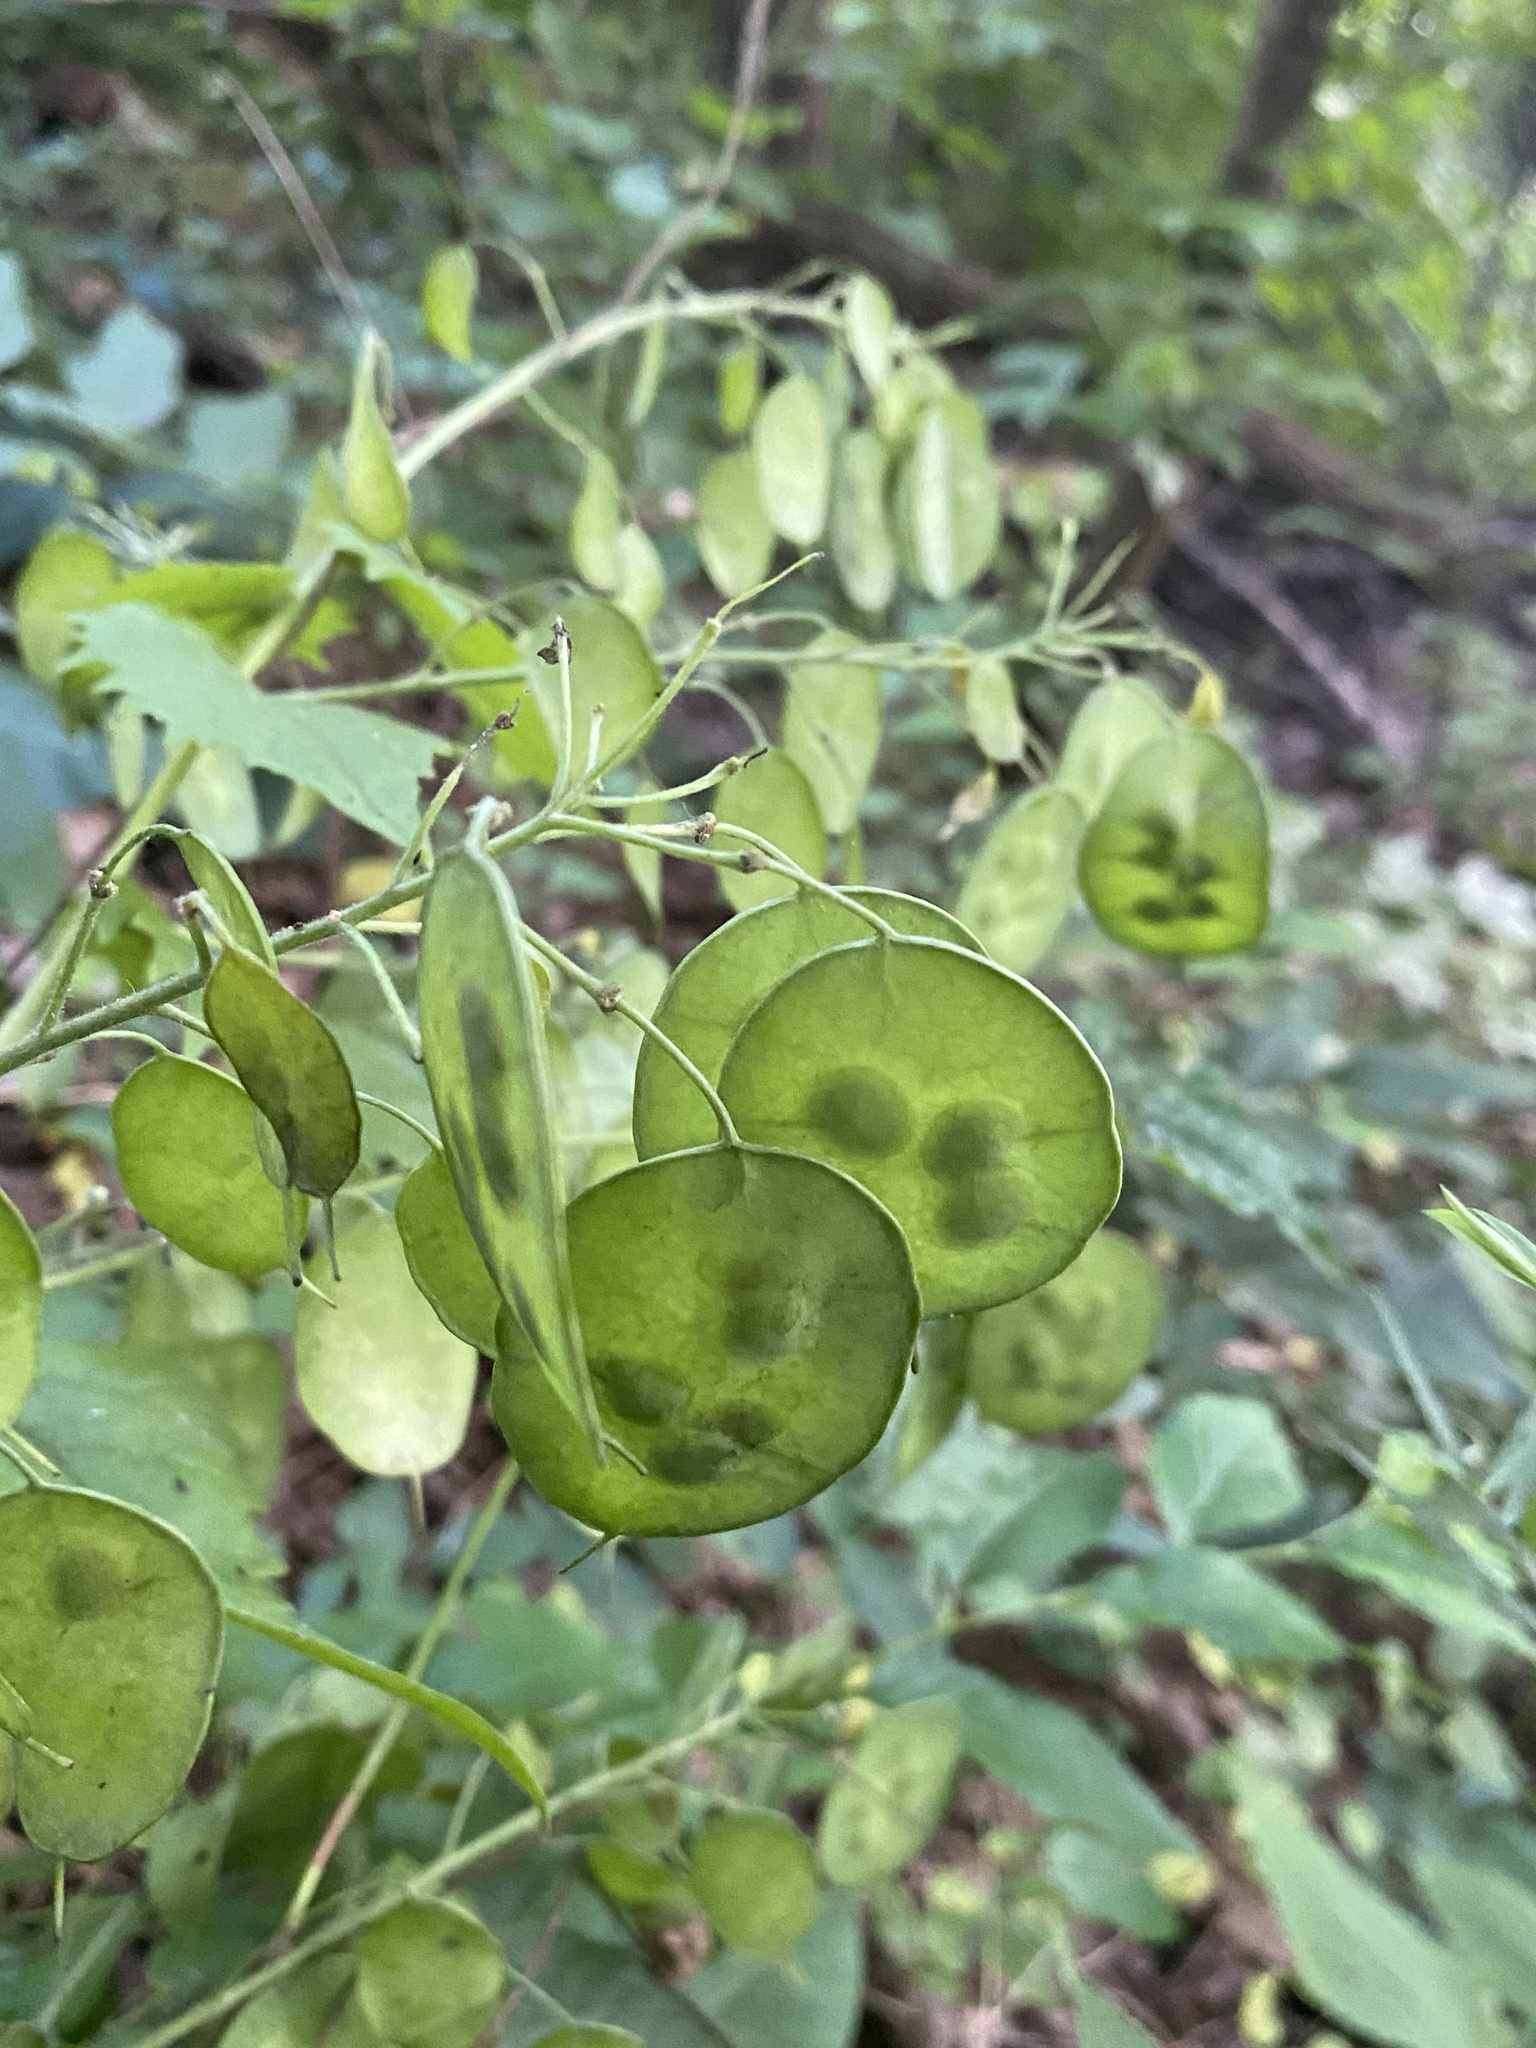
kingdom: Plantae
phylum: Tracheophyta
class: Magnoliopsida
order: Brassicales
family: Brassicaceae
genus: Lunaria
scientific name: Lunaria annua
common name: Honesty
